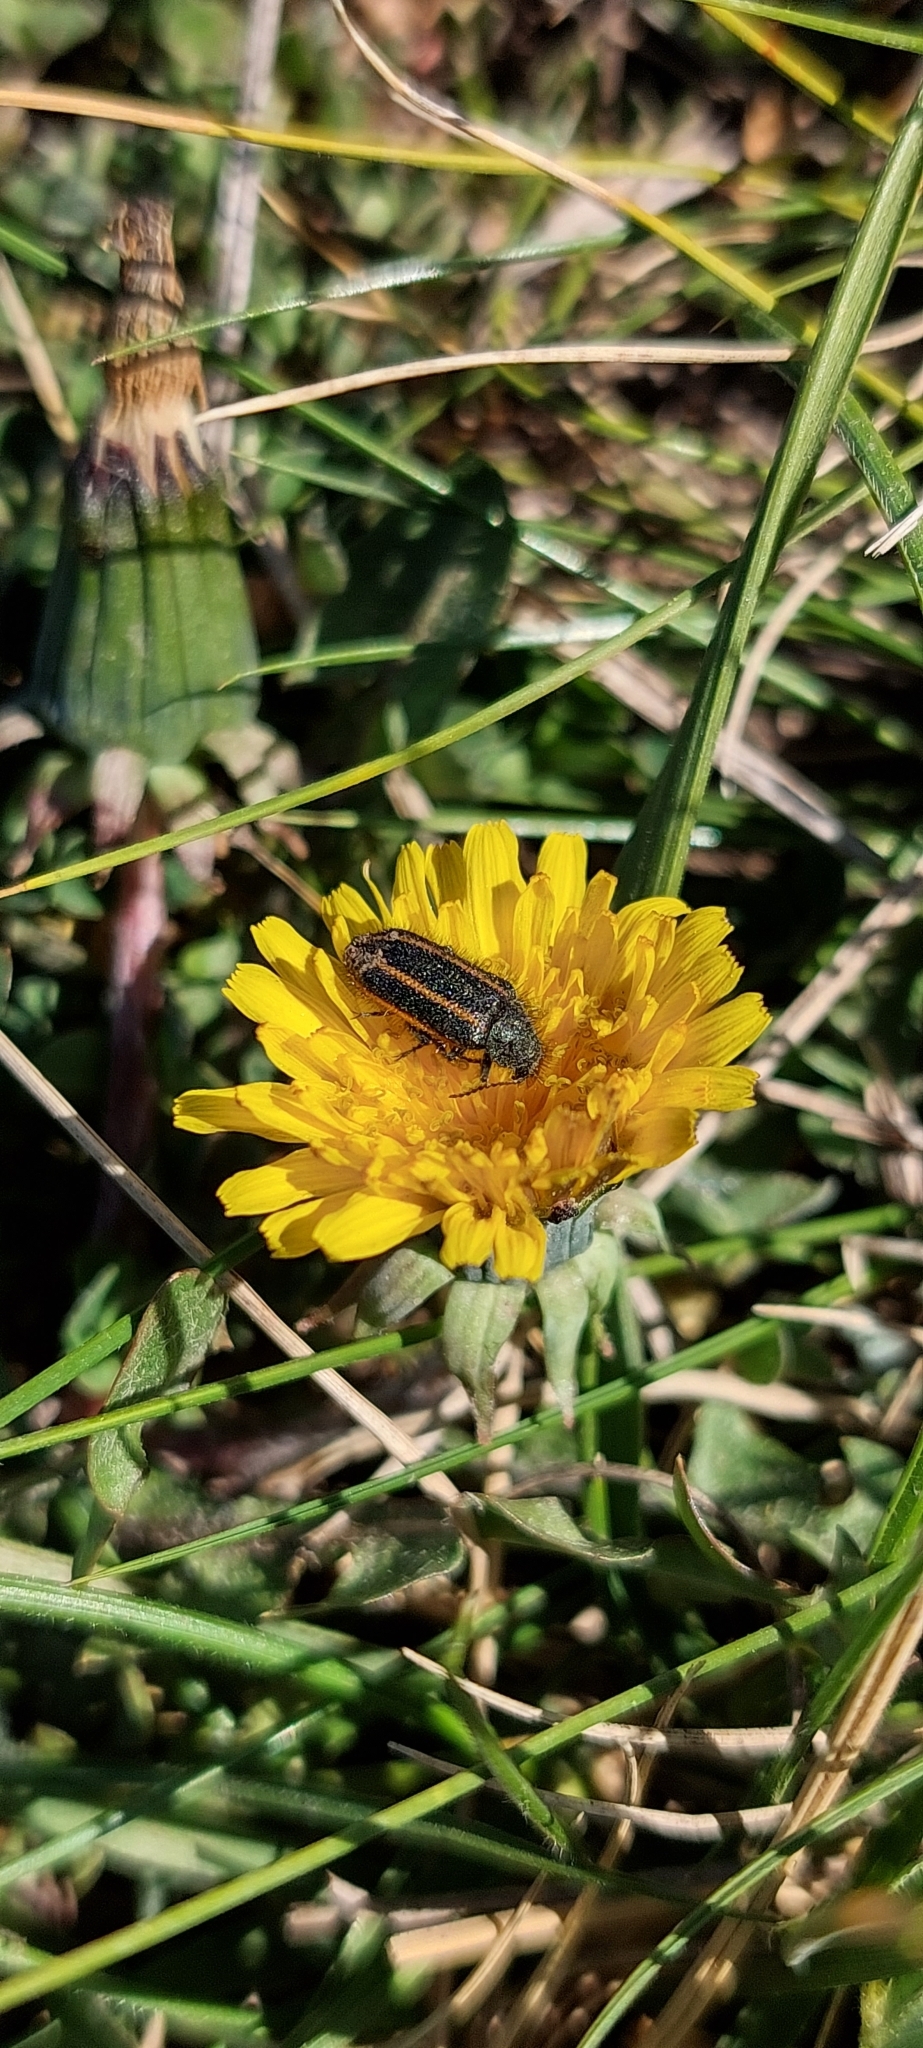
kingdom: Animalia
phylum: Arthropoda
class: Insecta
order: Coleoptera
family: Melyridae
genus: Astylus
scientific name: Astylus
